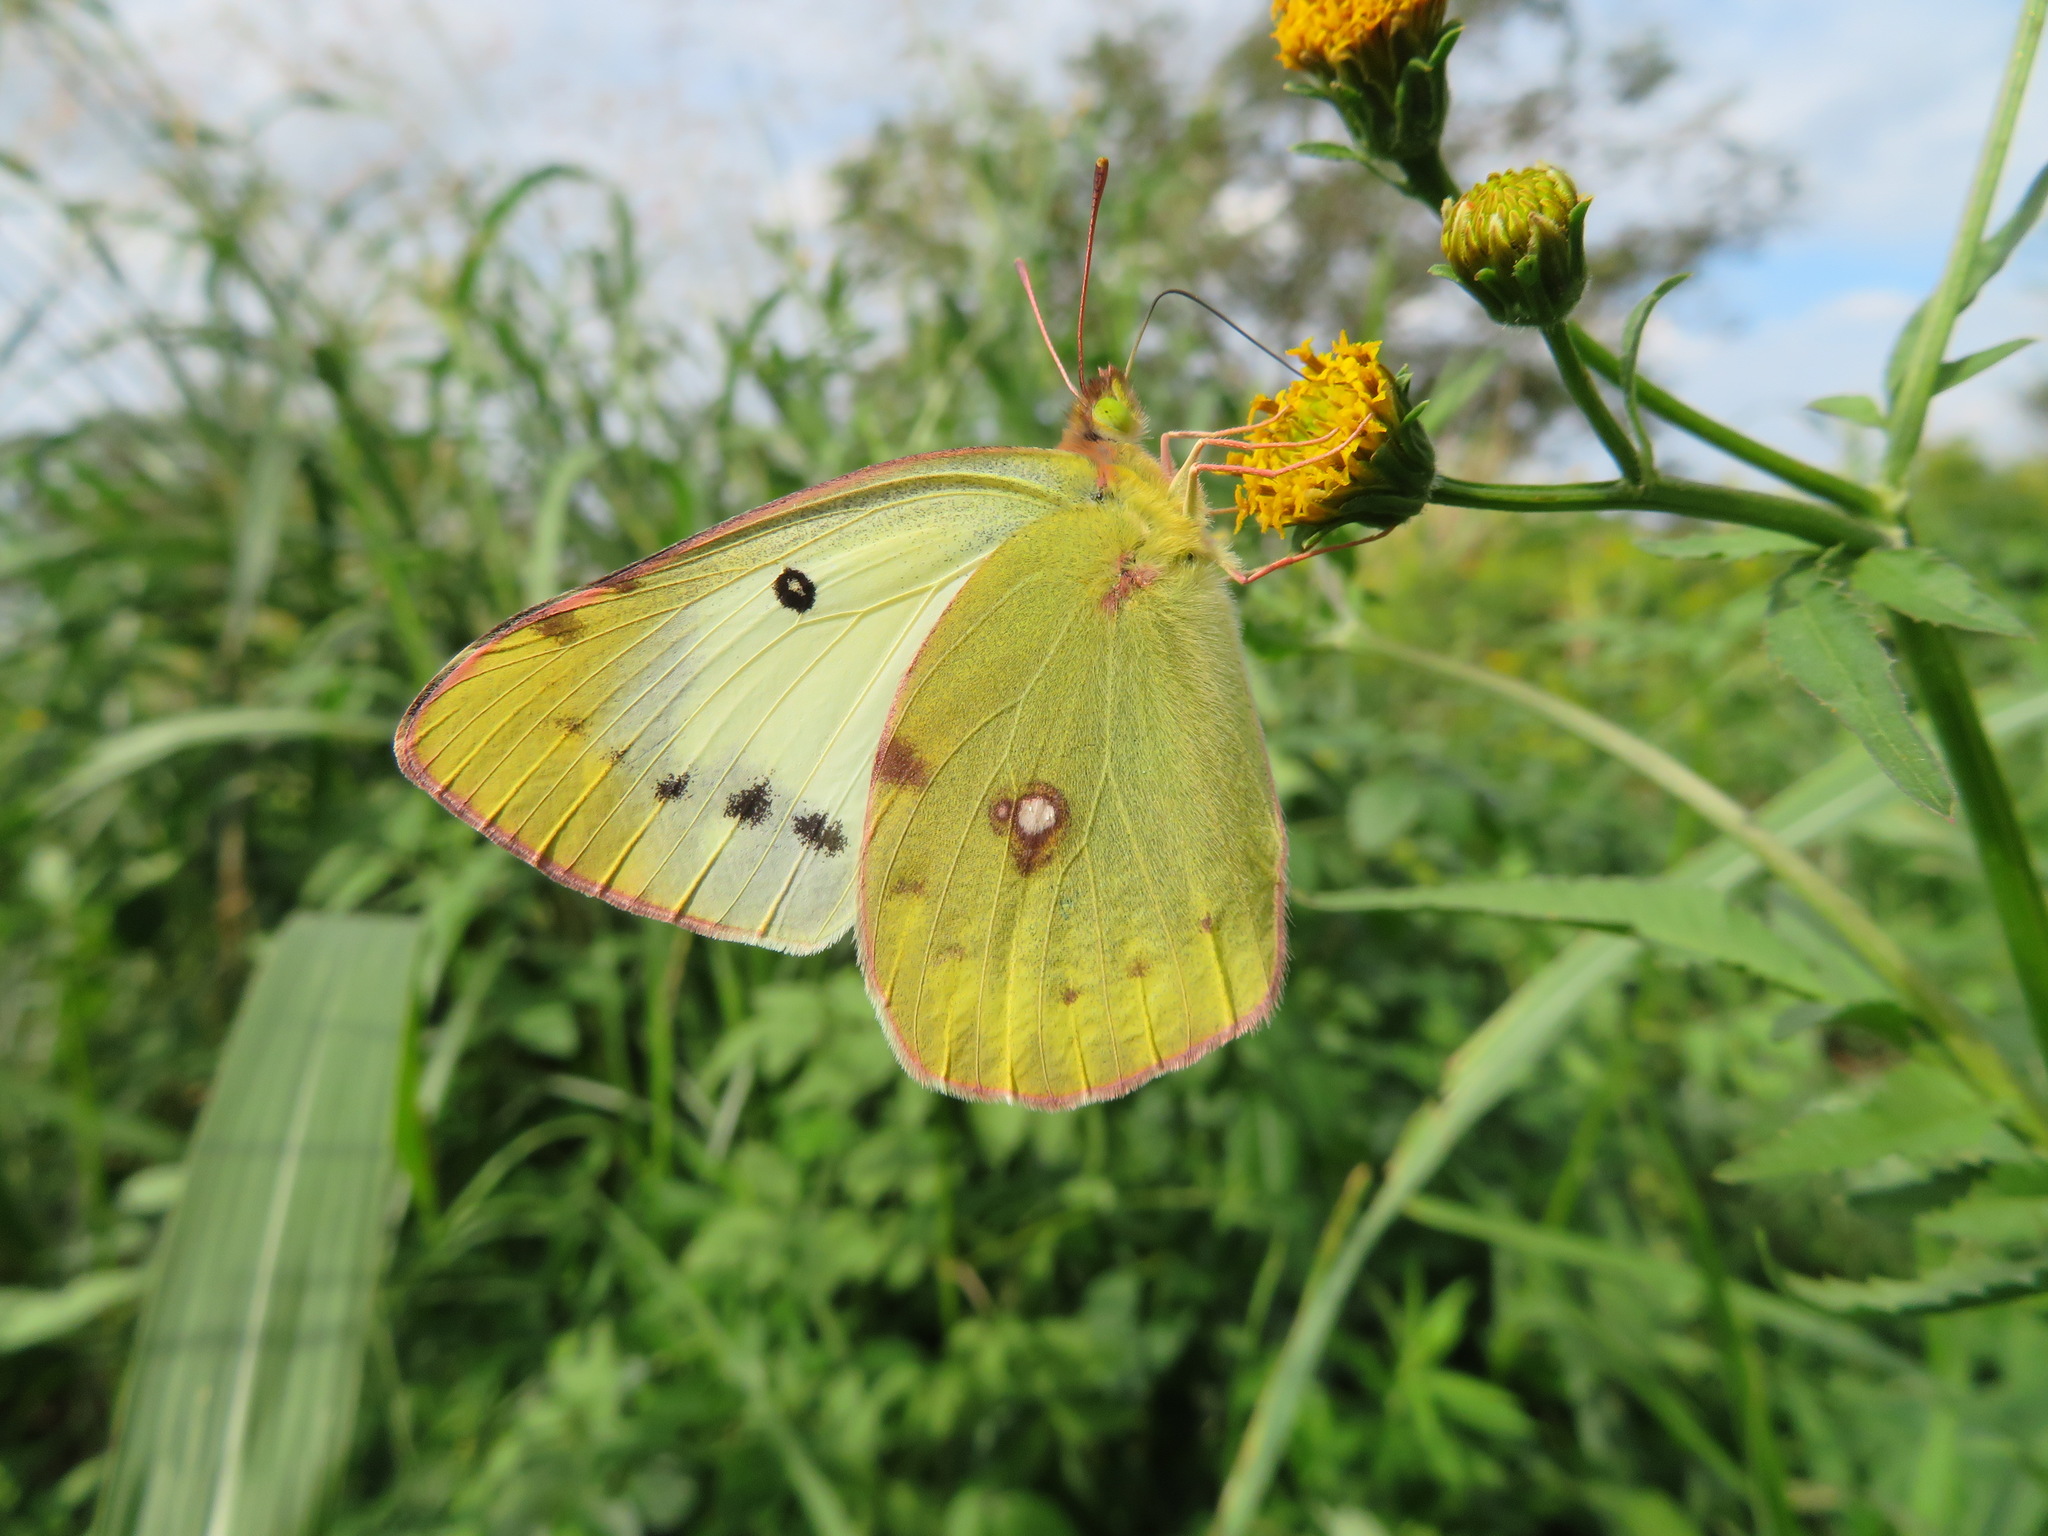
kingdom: Animalia
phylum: Arthropoda
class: Insecta
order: Lepidoptera
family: Pieridae
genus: Colias
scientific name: Colias poliographus
